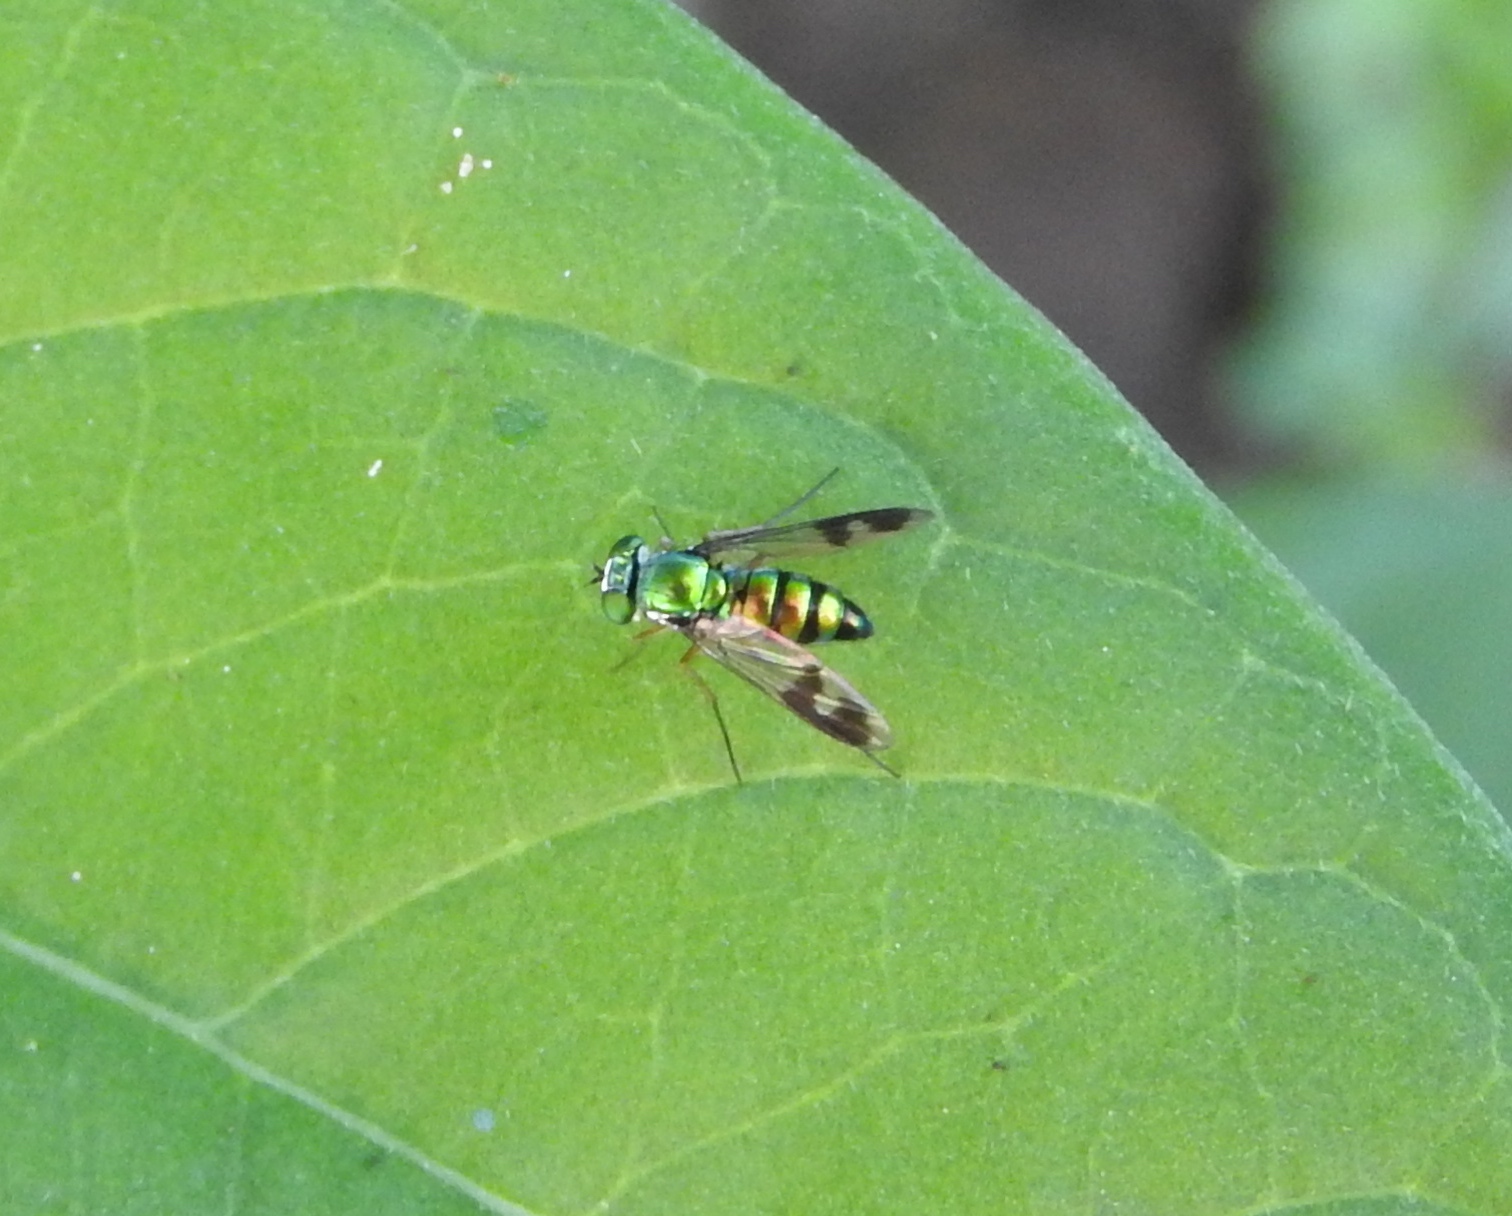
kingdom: Animalia
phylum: Arthropoda
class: Insecta
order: Diptera
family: Dolichopodidae
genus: Condylostylus
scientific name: Condylostylus
